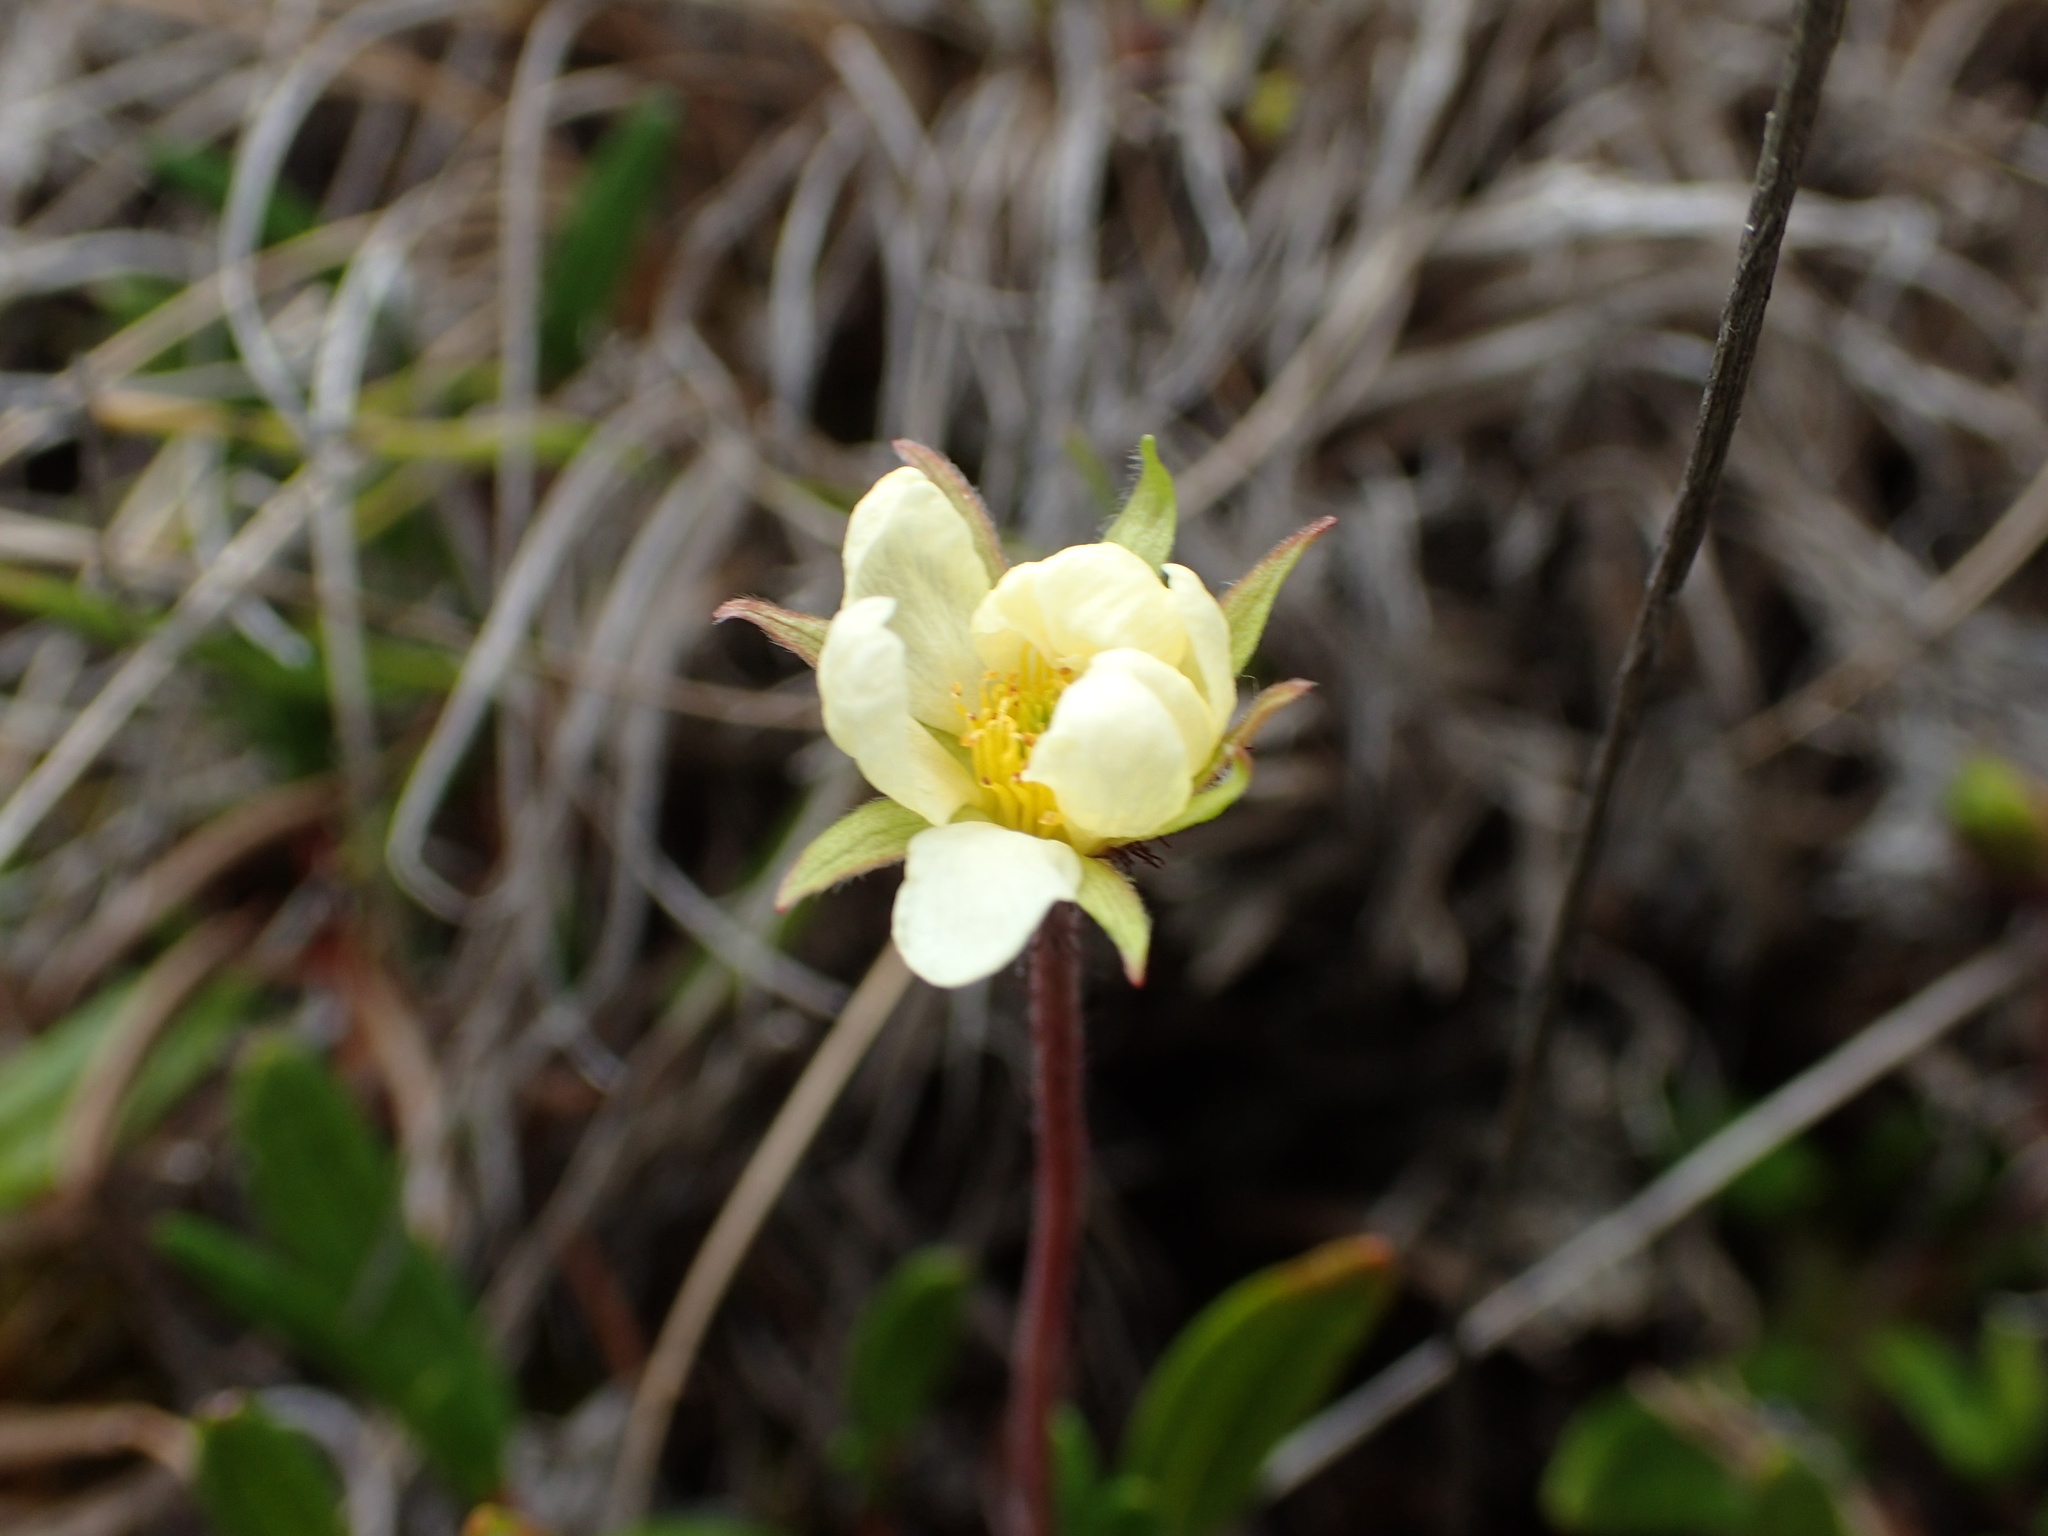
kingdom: Plantae
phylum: Tracheophyta
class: Magnoliopsida
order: Rosales
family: Rosaceae
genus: Dryas
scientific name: Dryas integrifolia
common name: Entire-leaved mountain avens
